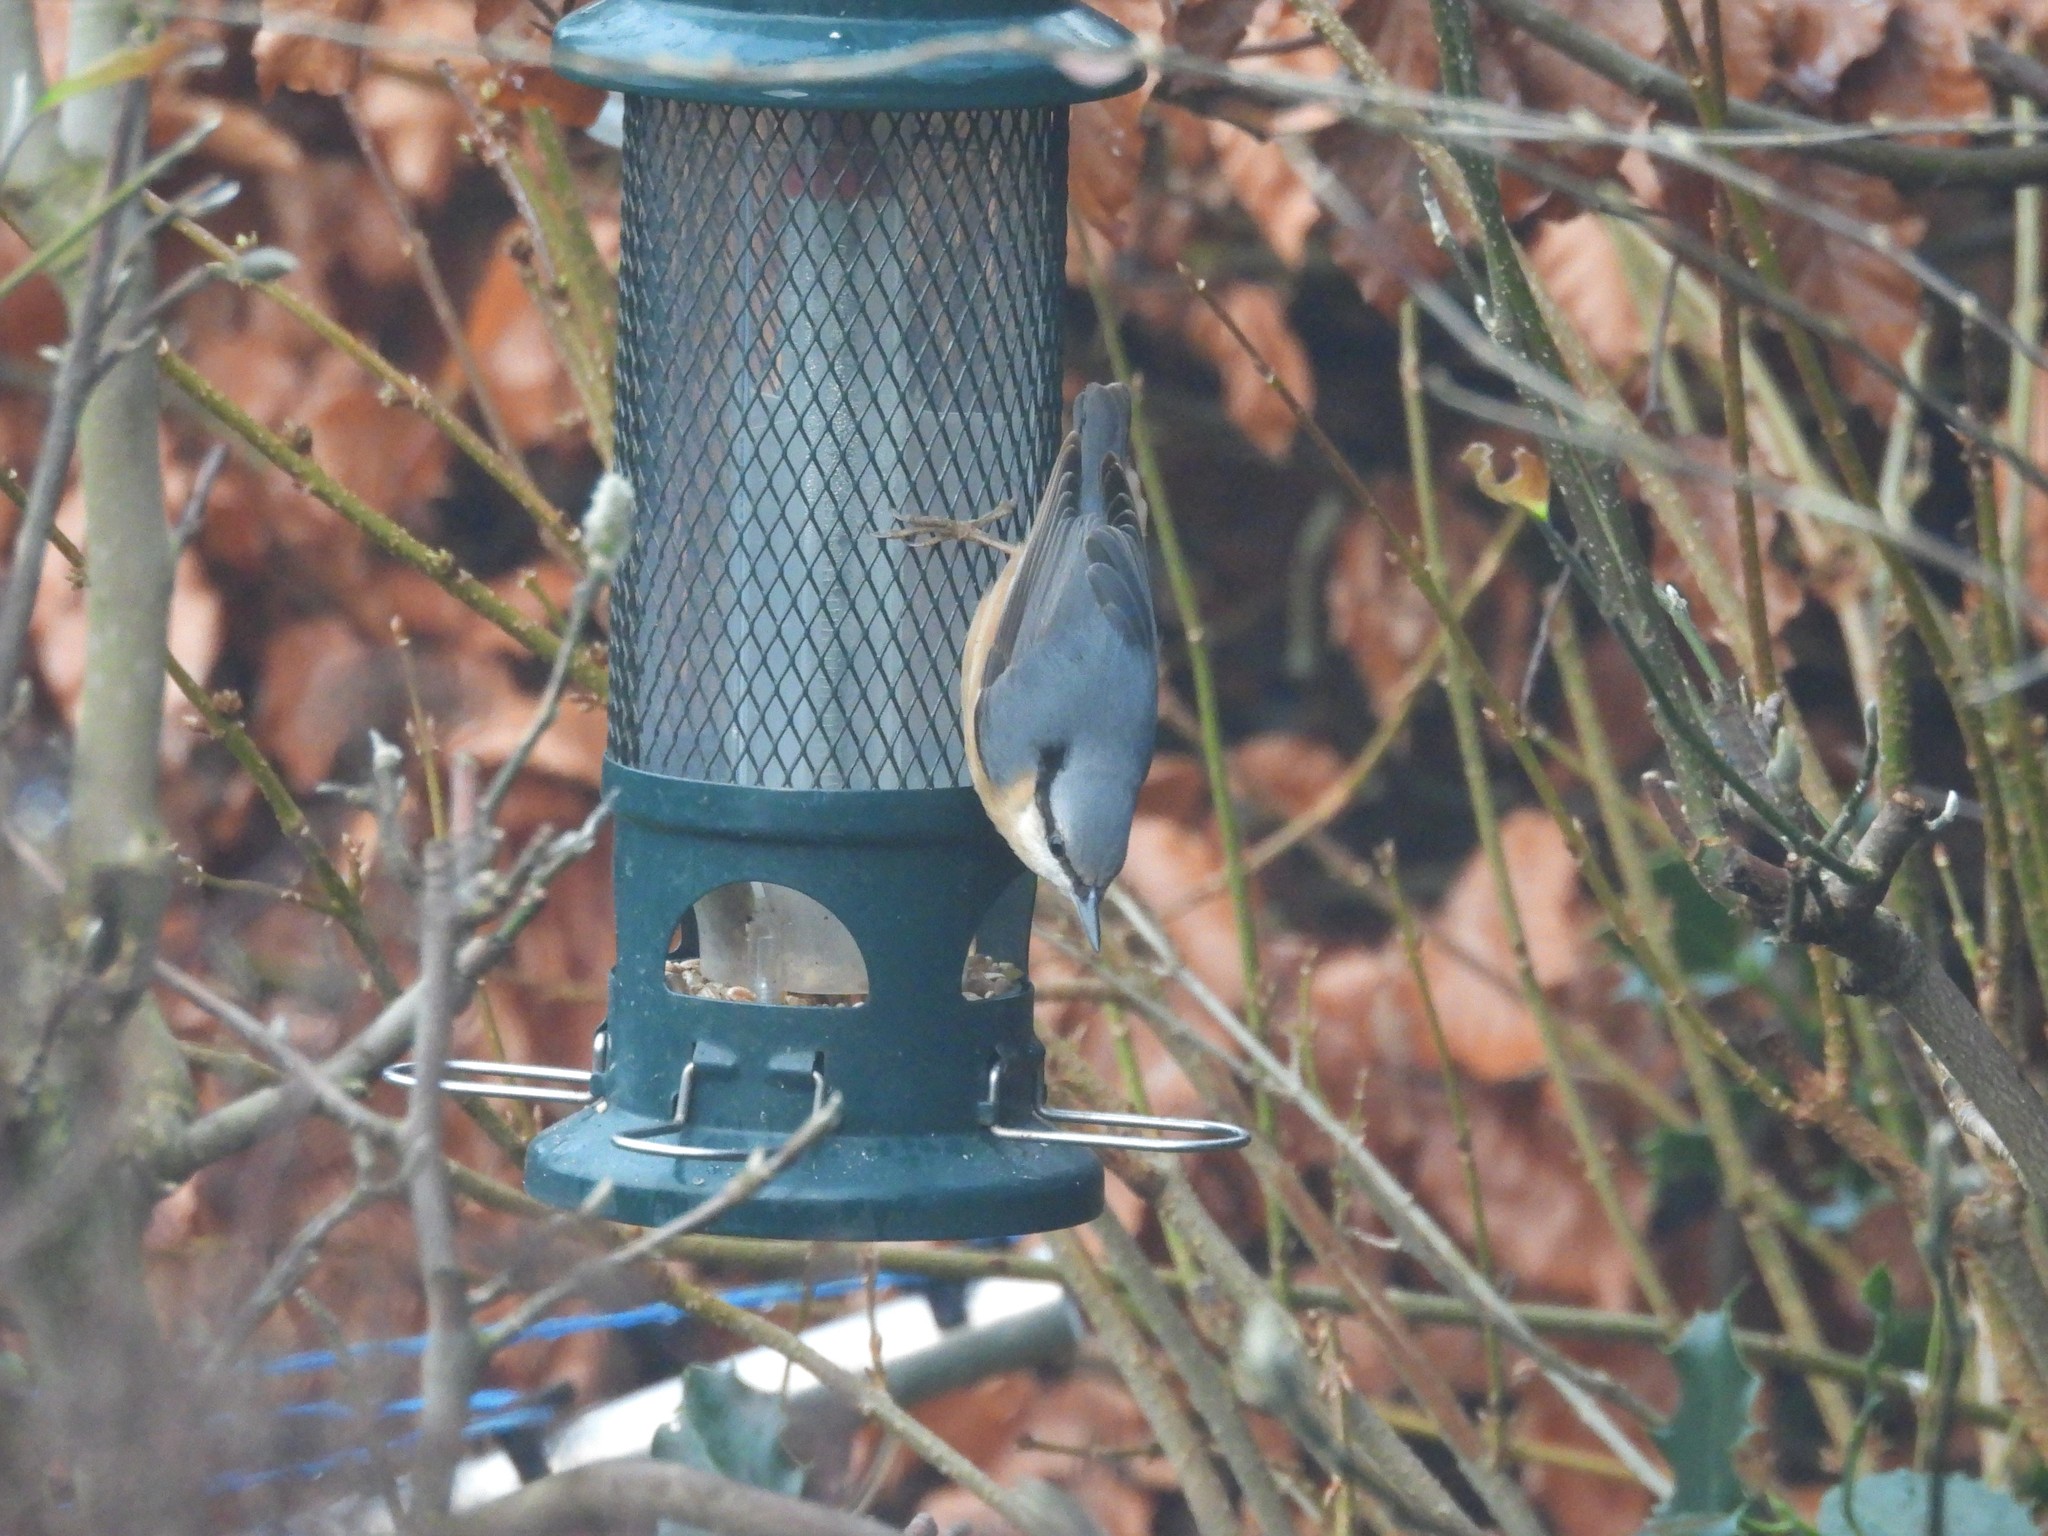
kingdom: Animalia
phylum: Chordata
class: Aves
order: Passeriformes
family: Sittidae
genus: Sitta
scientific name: Sitta europaea
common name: Eurasian nuthatch
